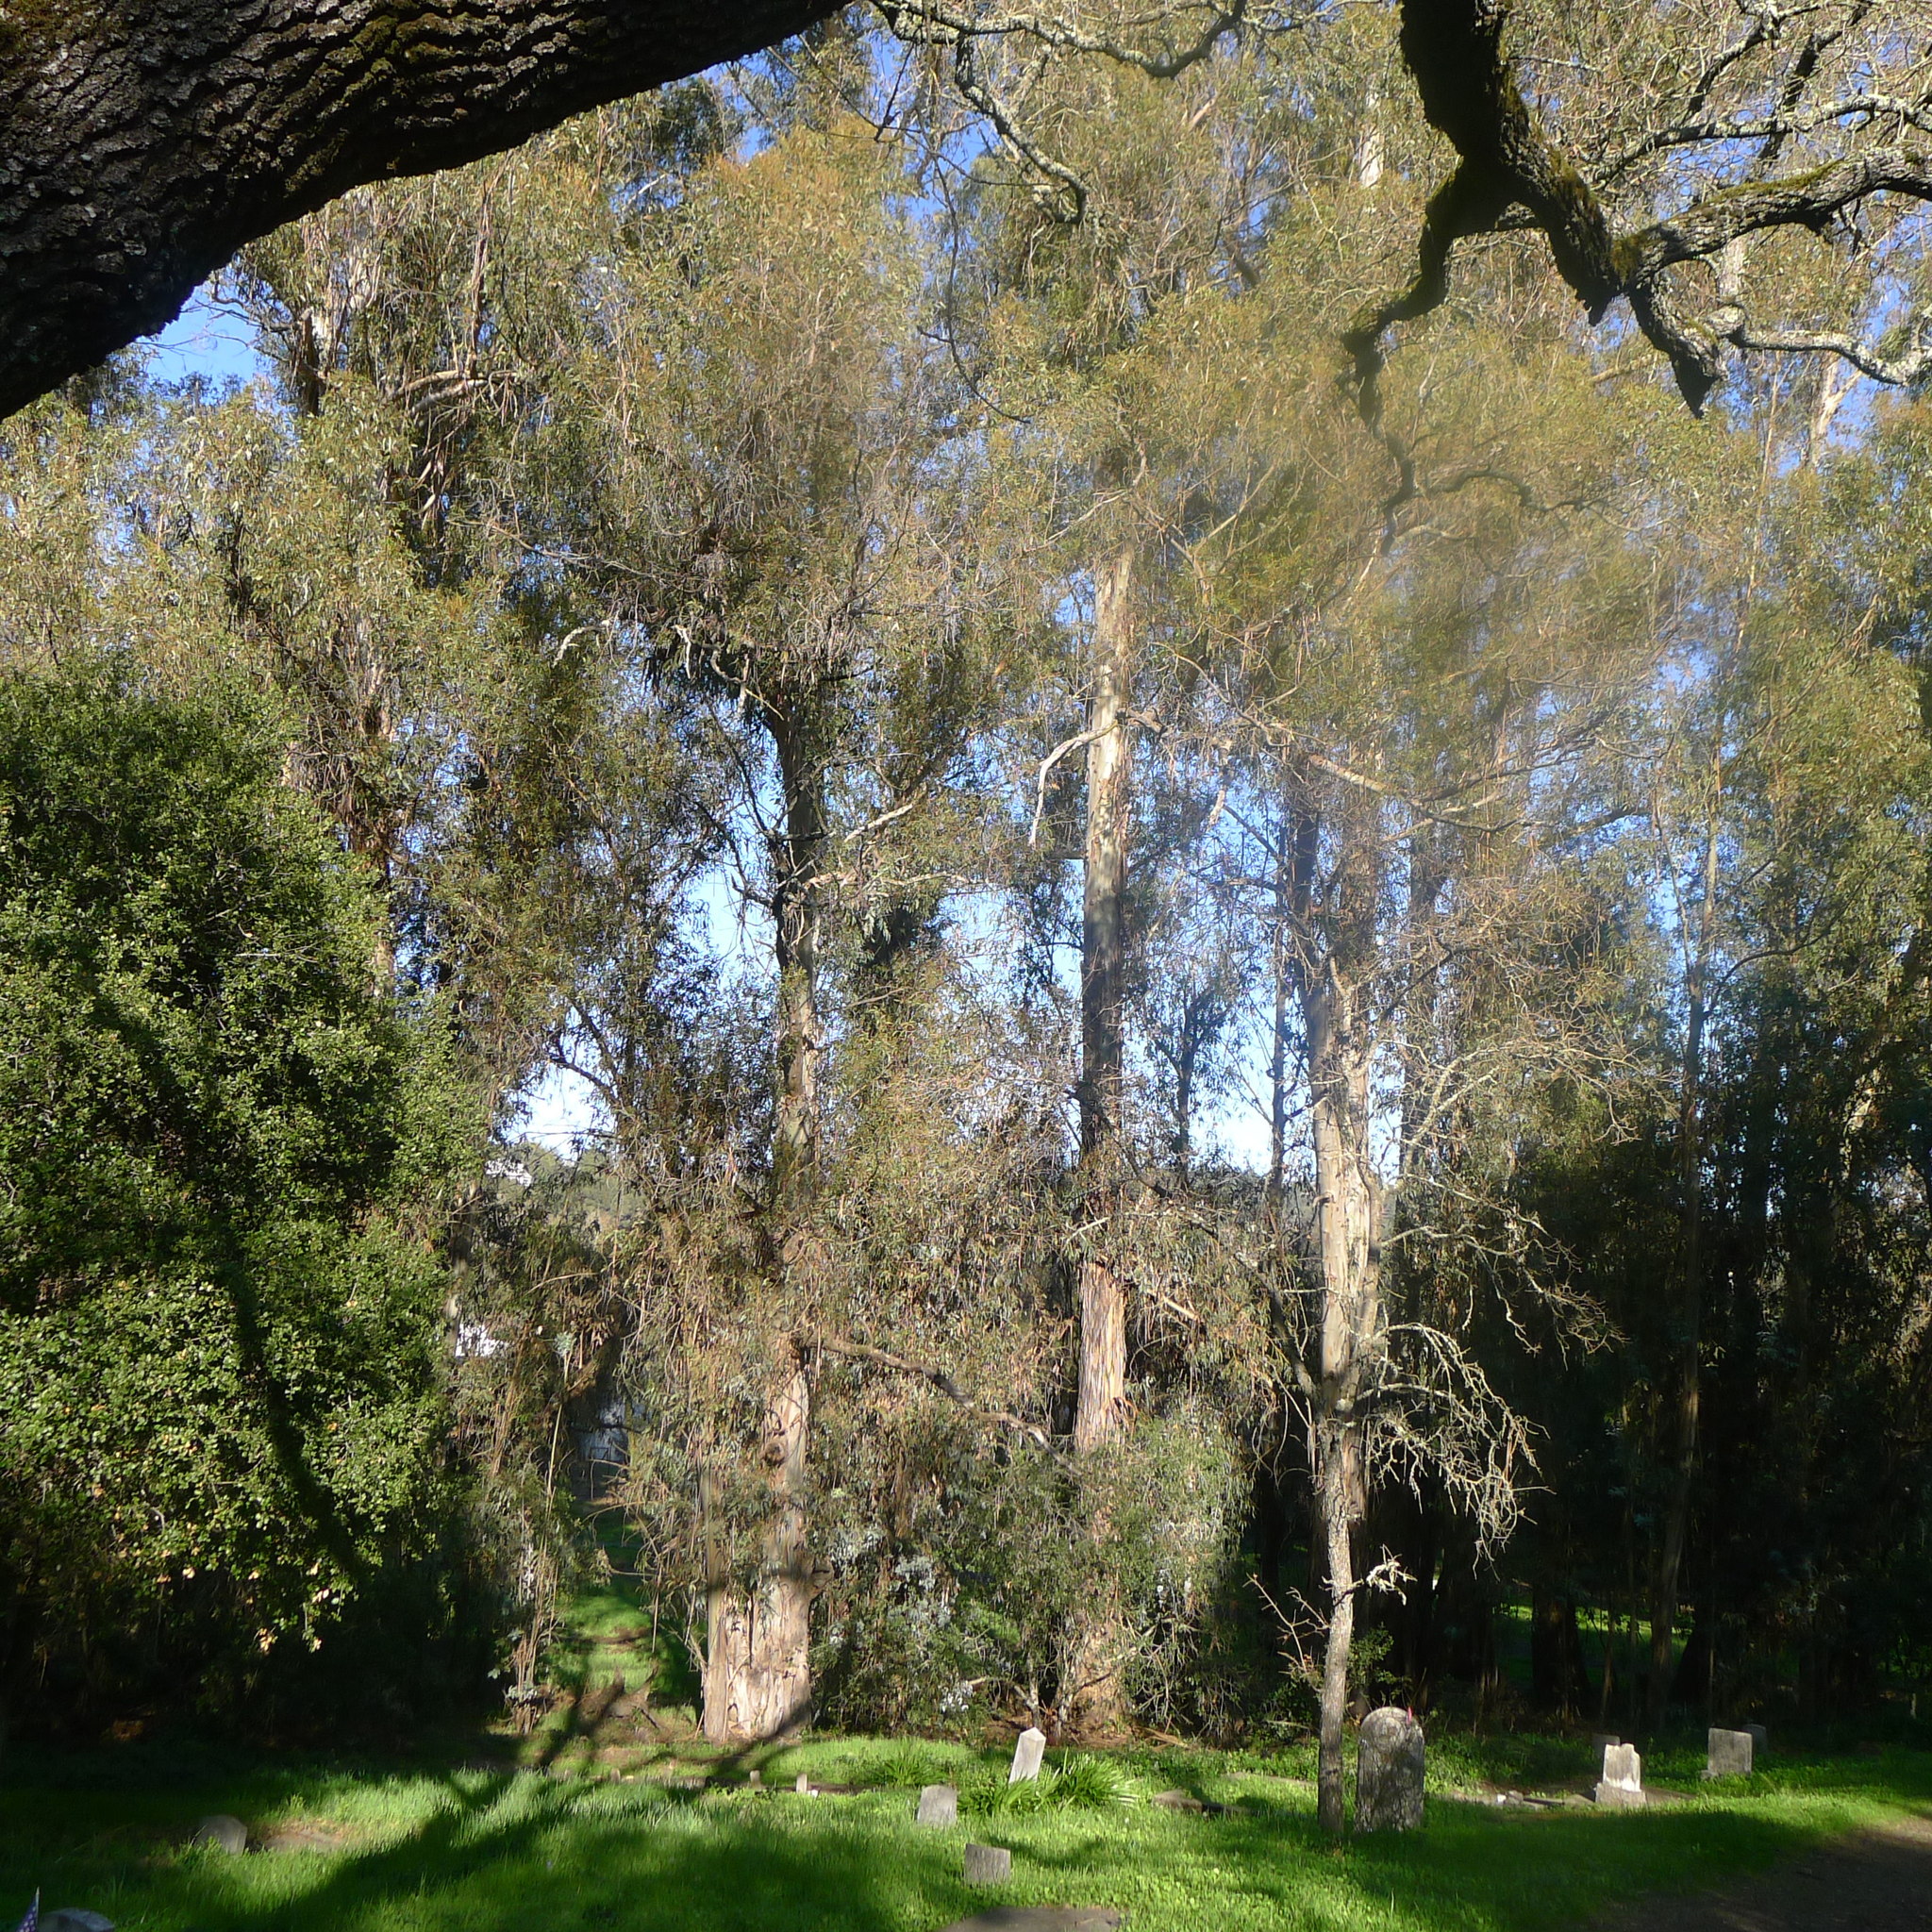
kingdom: Plantae
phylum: Tracheophyta
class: Magnoliopsida
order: Myrtales
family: Myrtaceae
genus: Eucalyptus
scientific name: Eucalyptus globulus
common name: Southern blue-gum
